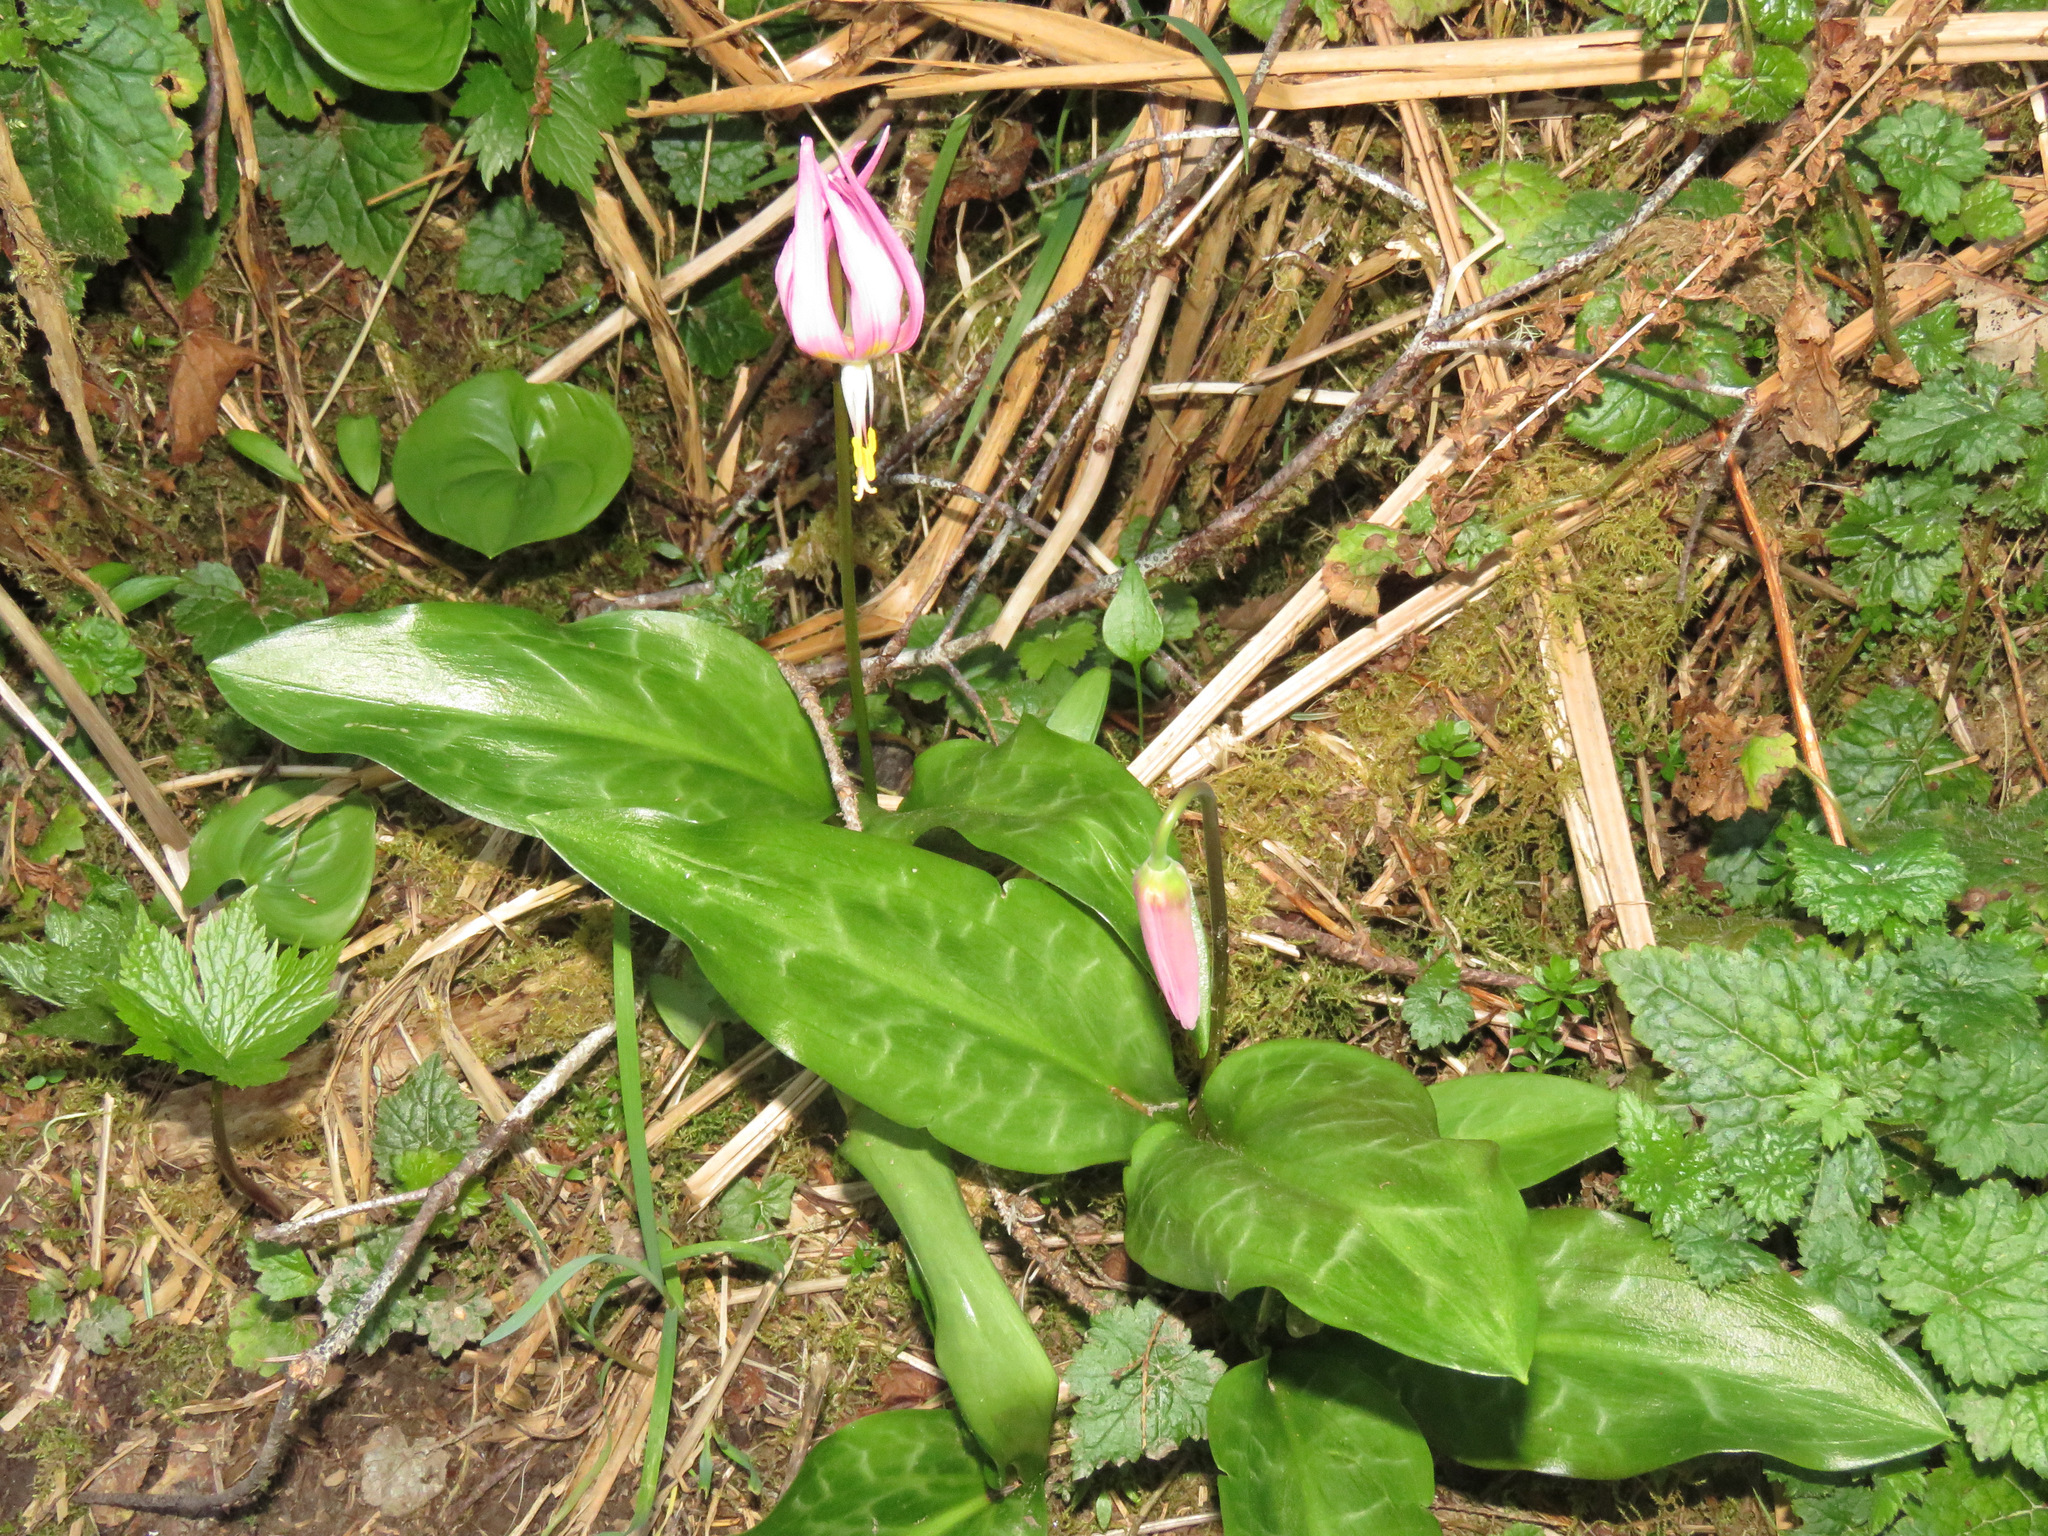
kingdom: Plantae
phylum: Tracheophyta
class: Liliopsida
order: Liliales
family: Liliaceae
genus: Erythronium
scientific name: Erythronium revolutum
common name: Pink fawn-lily
